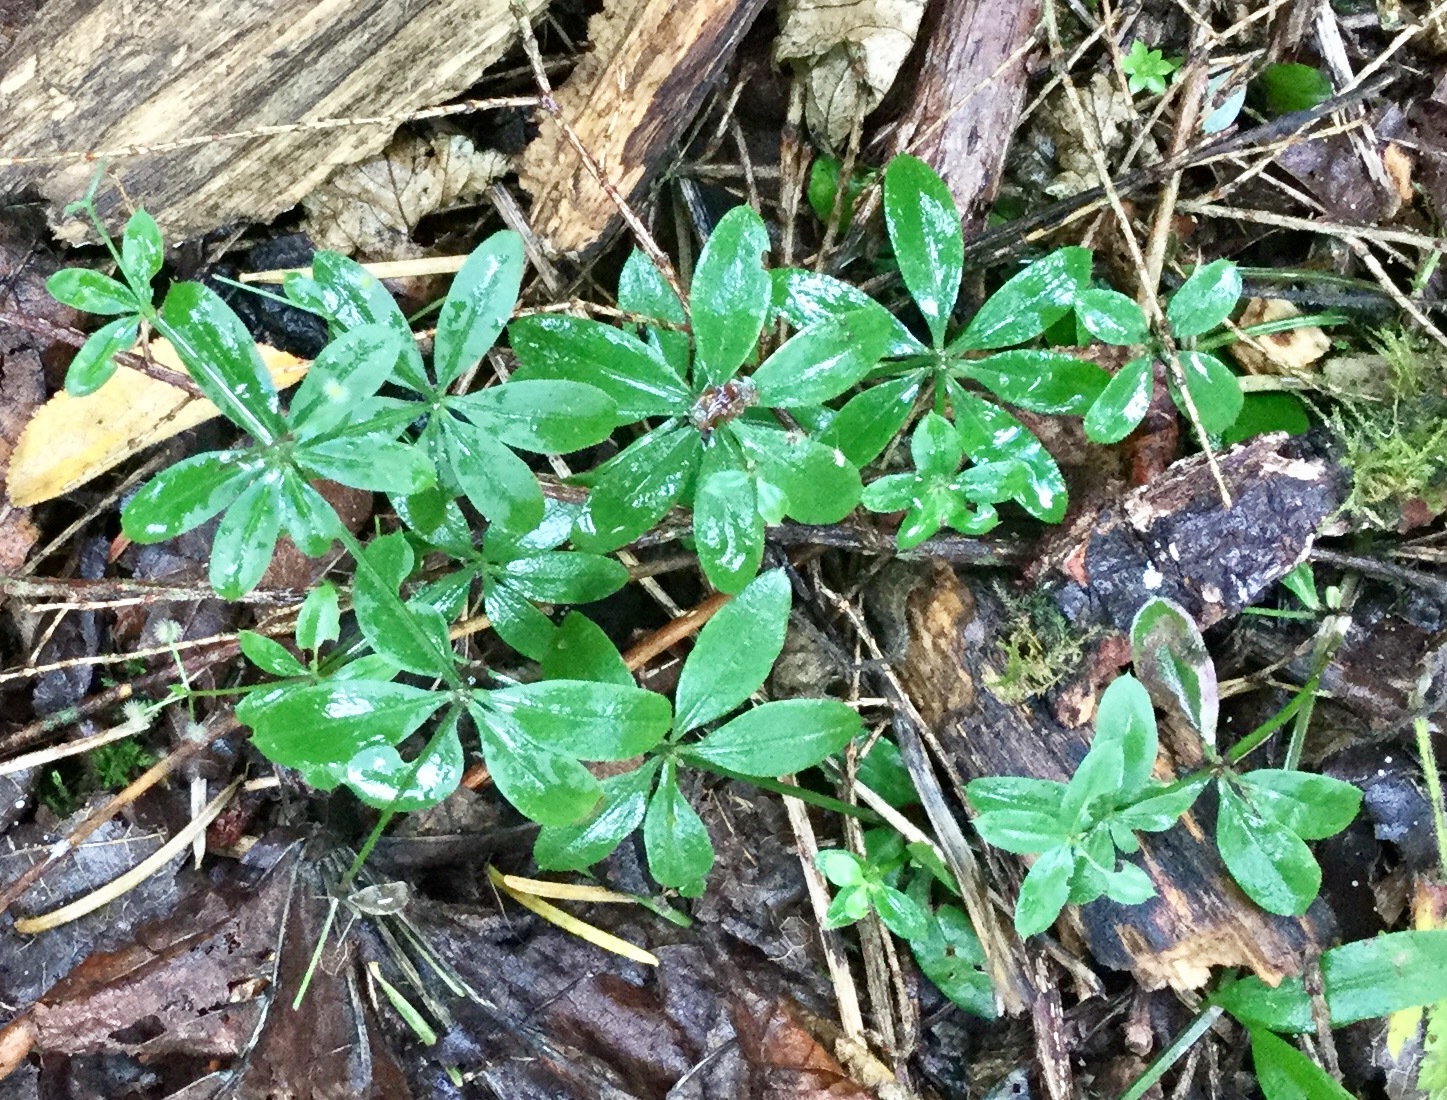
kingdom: Plantae
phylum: Tracheophyta
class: Magnoliopsida
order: Gentianales
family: Rubiaceae
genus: Galium
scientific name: Galium triflorum
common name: Fragrant bedstraw
